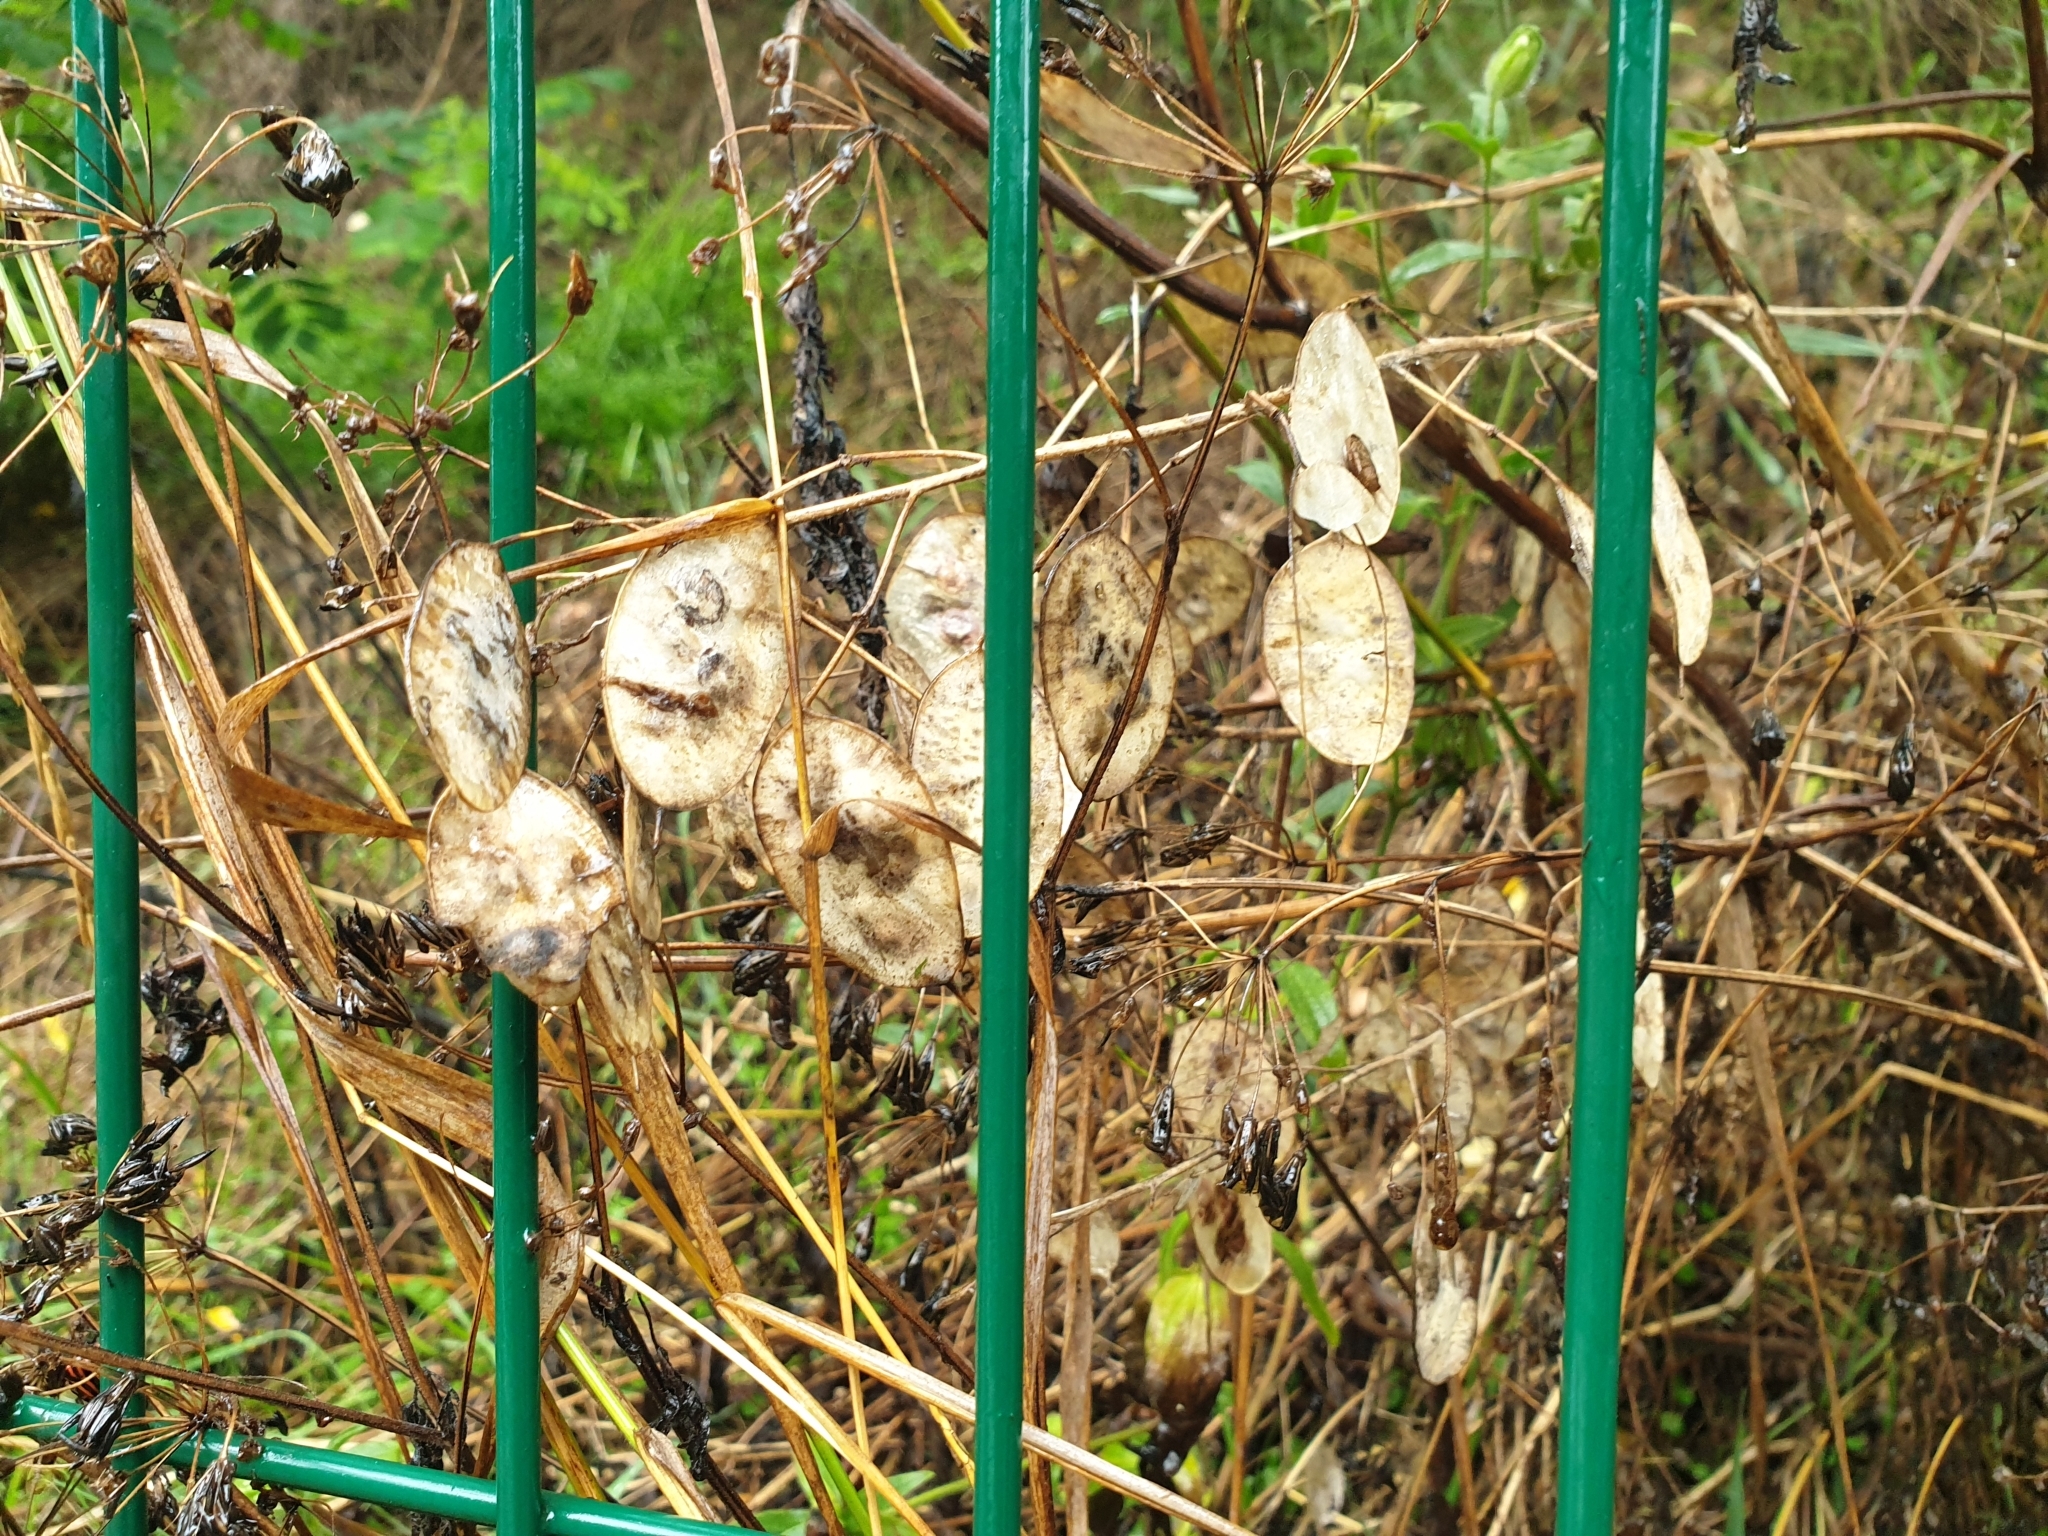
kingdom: Plantae
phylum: Tracheophyta
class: Magnoliopsida
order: Brassicales
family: Brassicaceae
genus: Lunaria
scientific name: Lunaria annua
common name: Honesty
